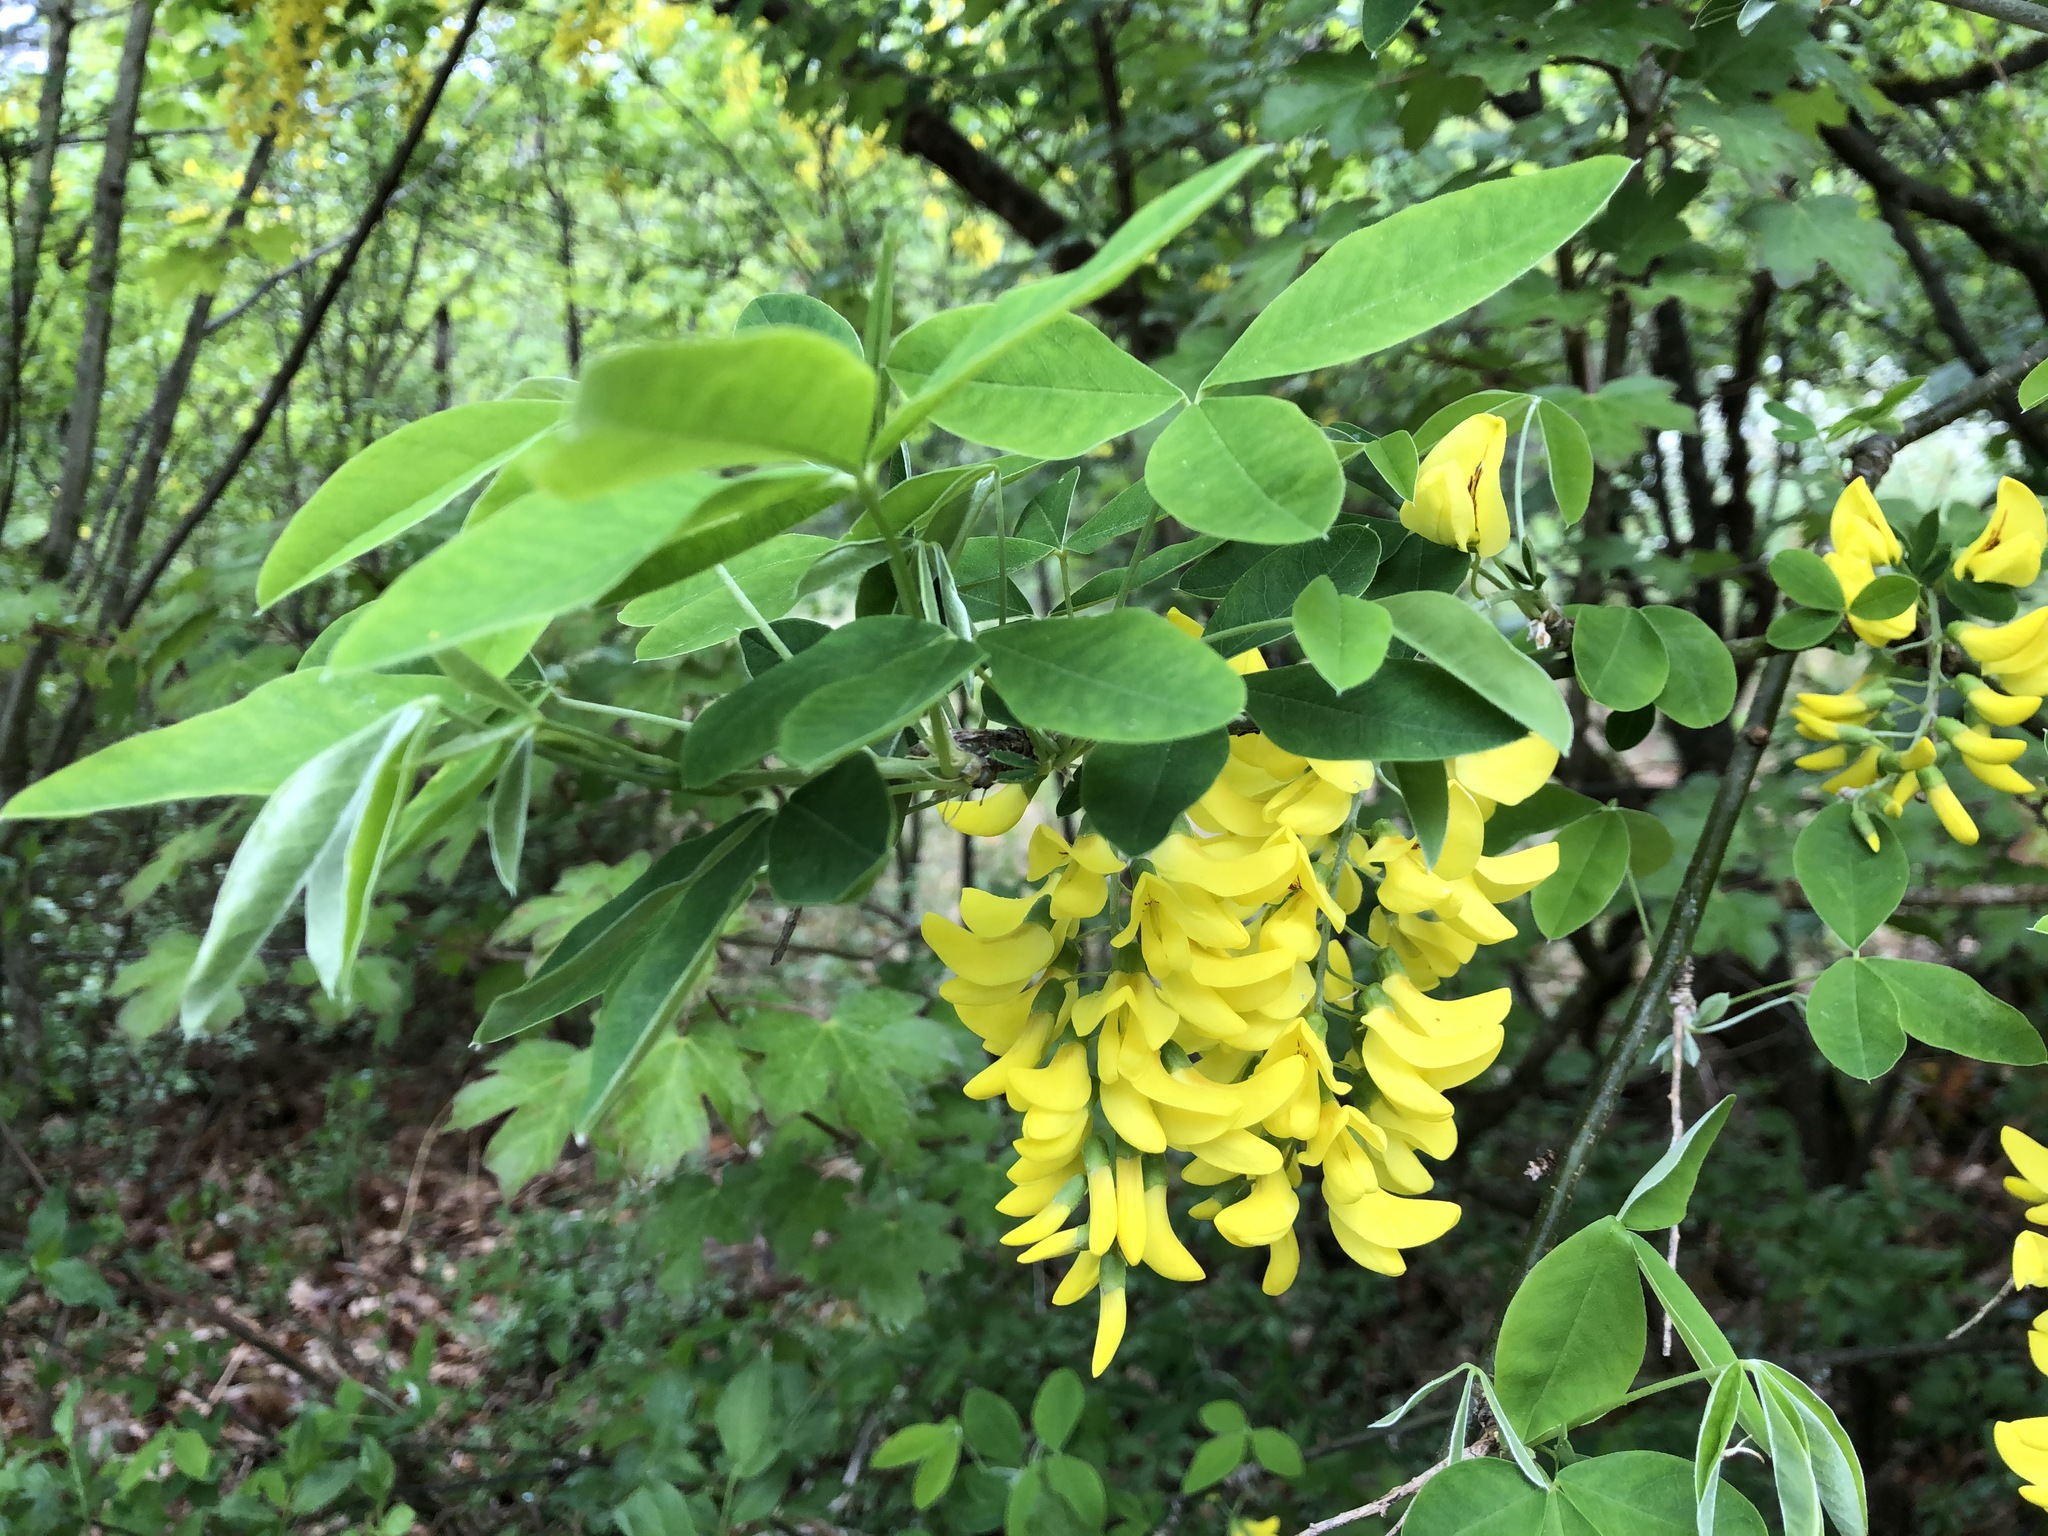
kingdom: Plantae
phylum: Tracheophyta
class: Magnoliopsida
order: Fabales
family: Fabaceae
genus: Laburnum
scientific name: Laburnum anagyroides
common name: Laburnum
